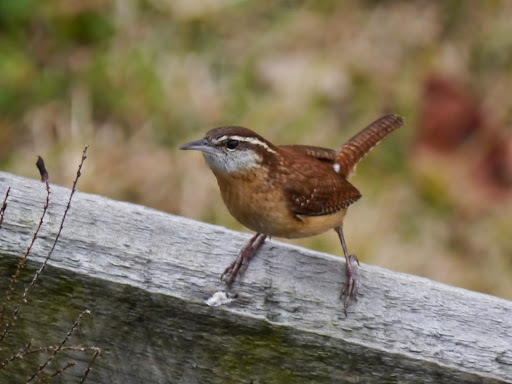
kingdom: Animalia
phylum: Chordata
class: Aves
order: Passeriformes
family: Troglodytidae
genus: Thryothorus
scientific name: Thryothorus ludovicianus
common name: Carolina wren
